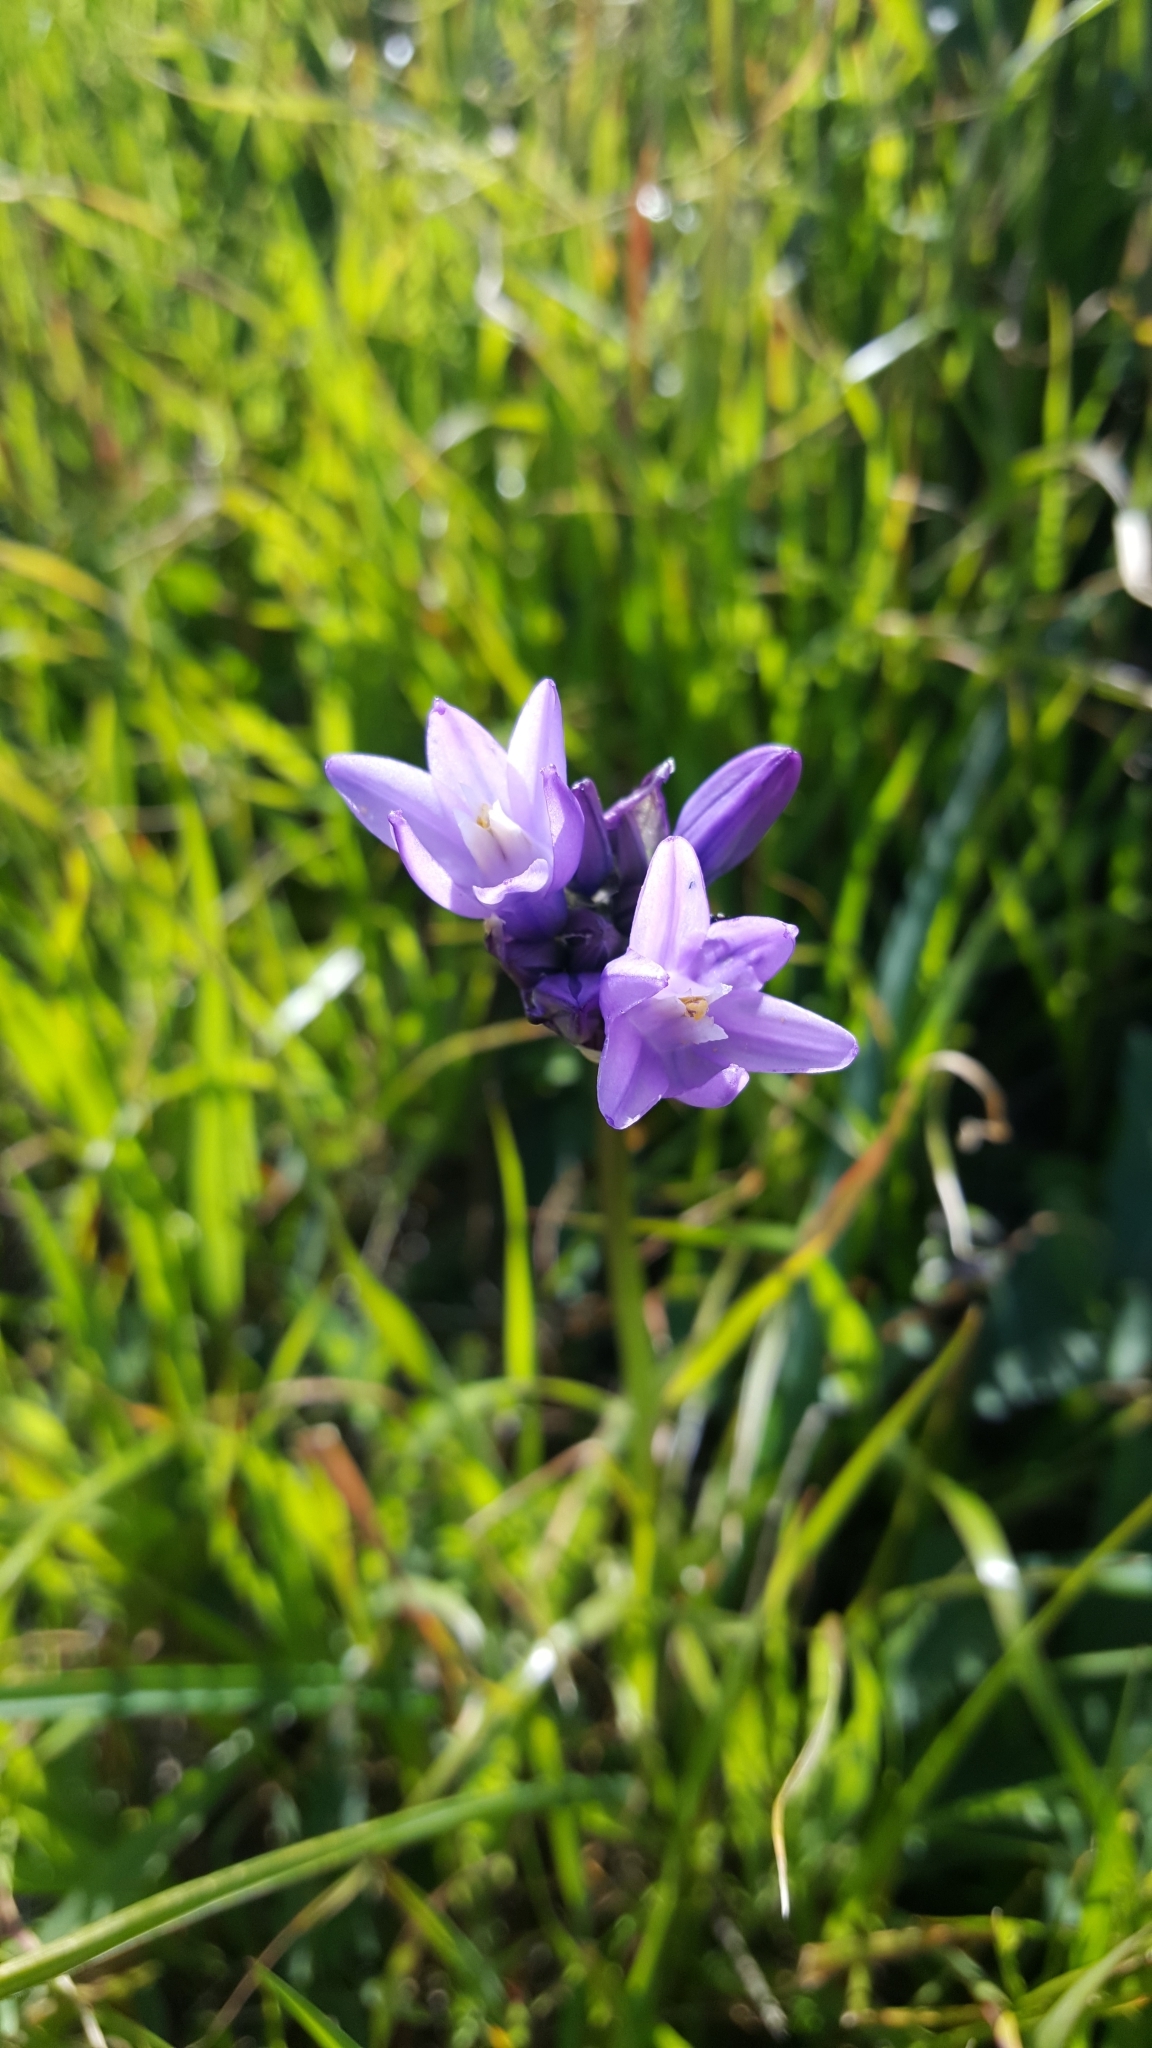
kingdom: Plantae
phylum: Tracheophyta
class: Liliopsida
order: Asparagales
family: Asparagaceae
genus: Dipterostemon
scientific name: Dipterostemon capitatus
